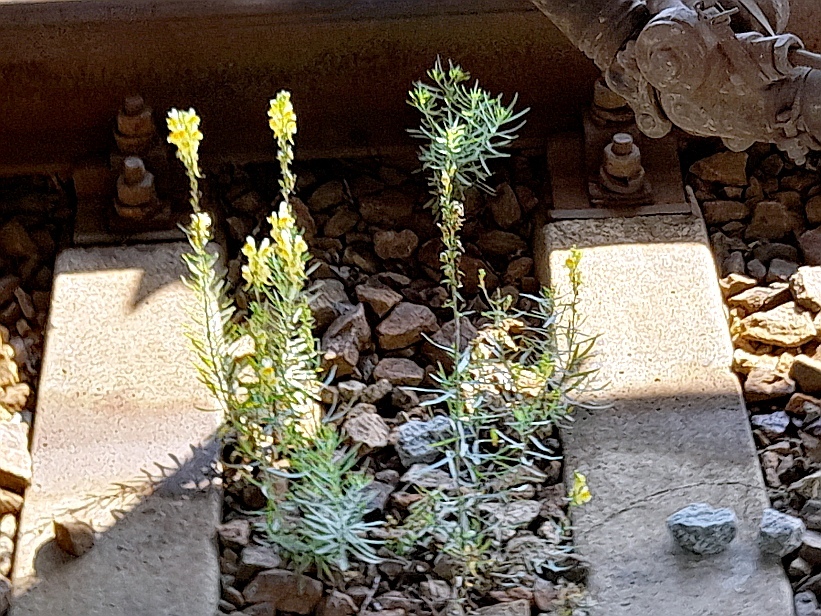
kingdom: Plantae
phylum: Tracheophyta
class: Magnoliopsida
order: Lamiales
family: Plantaginaceae
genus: Linaria
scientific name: Linaria vulgaris
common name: Butter and eggs
